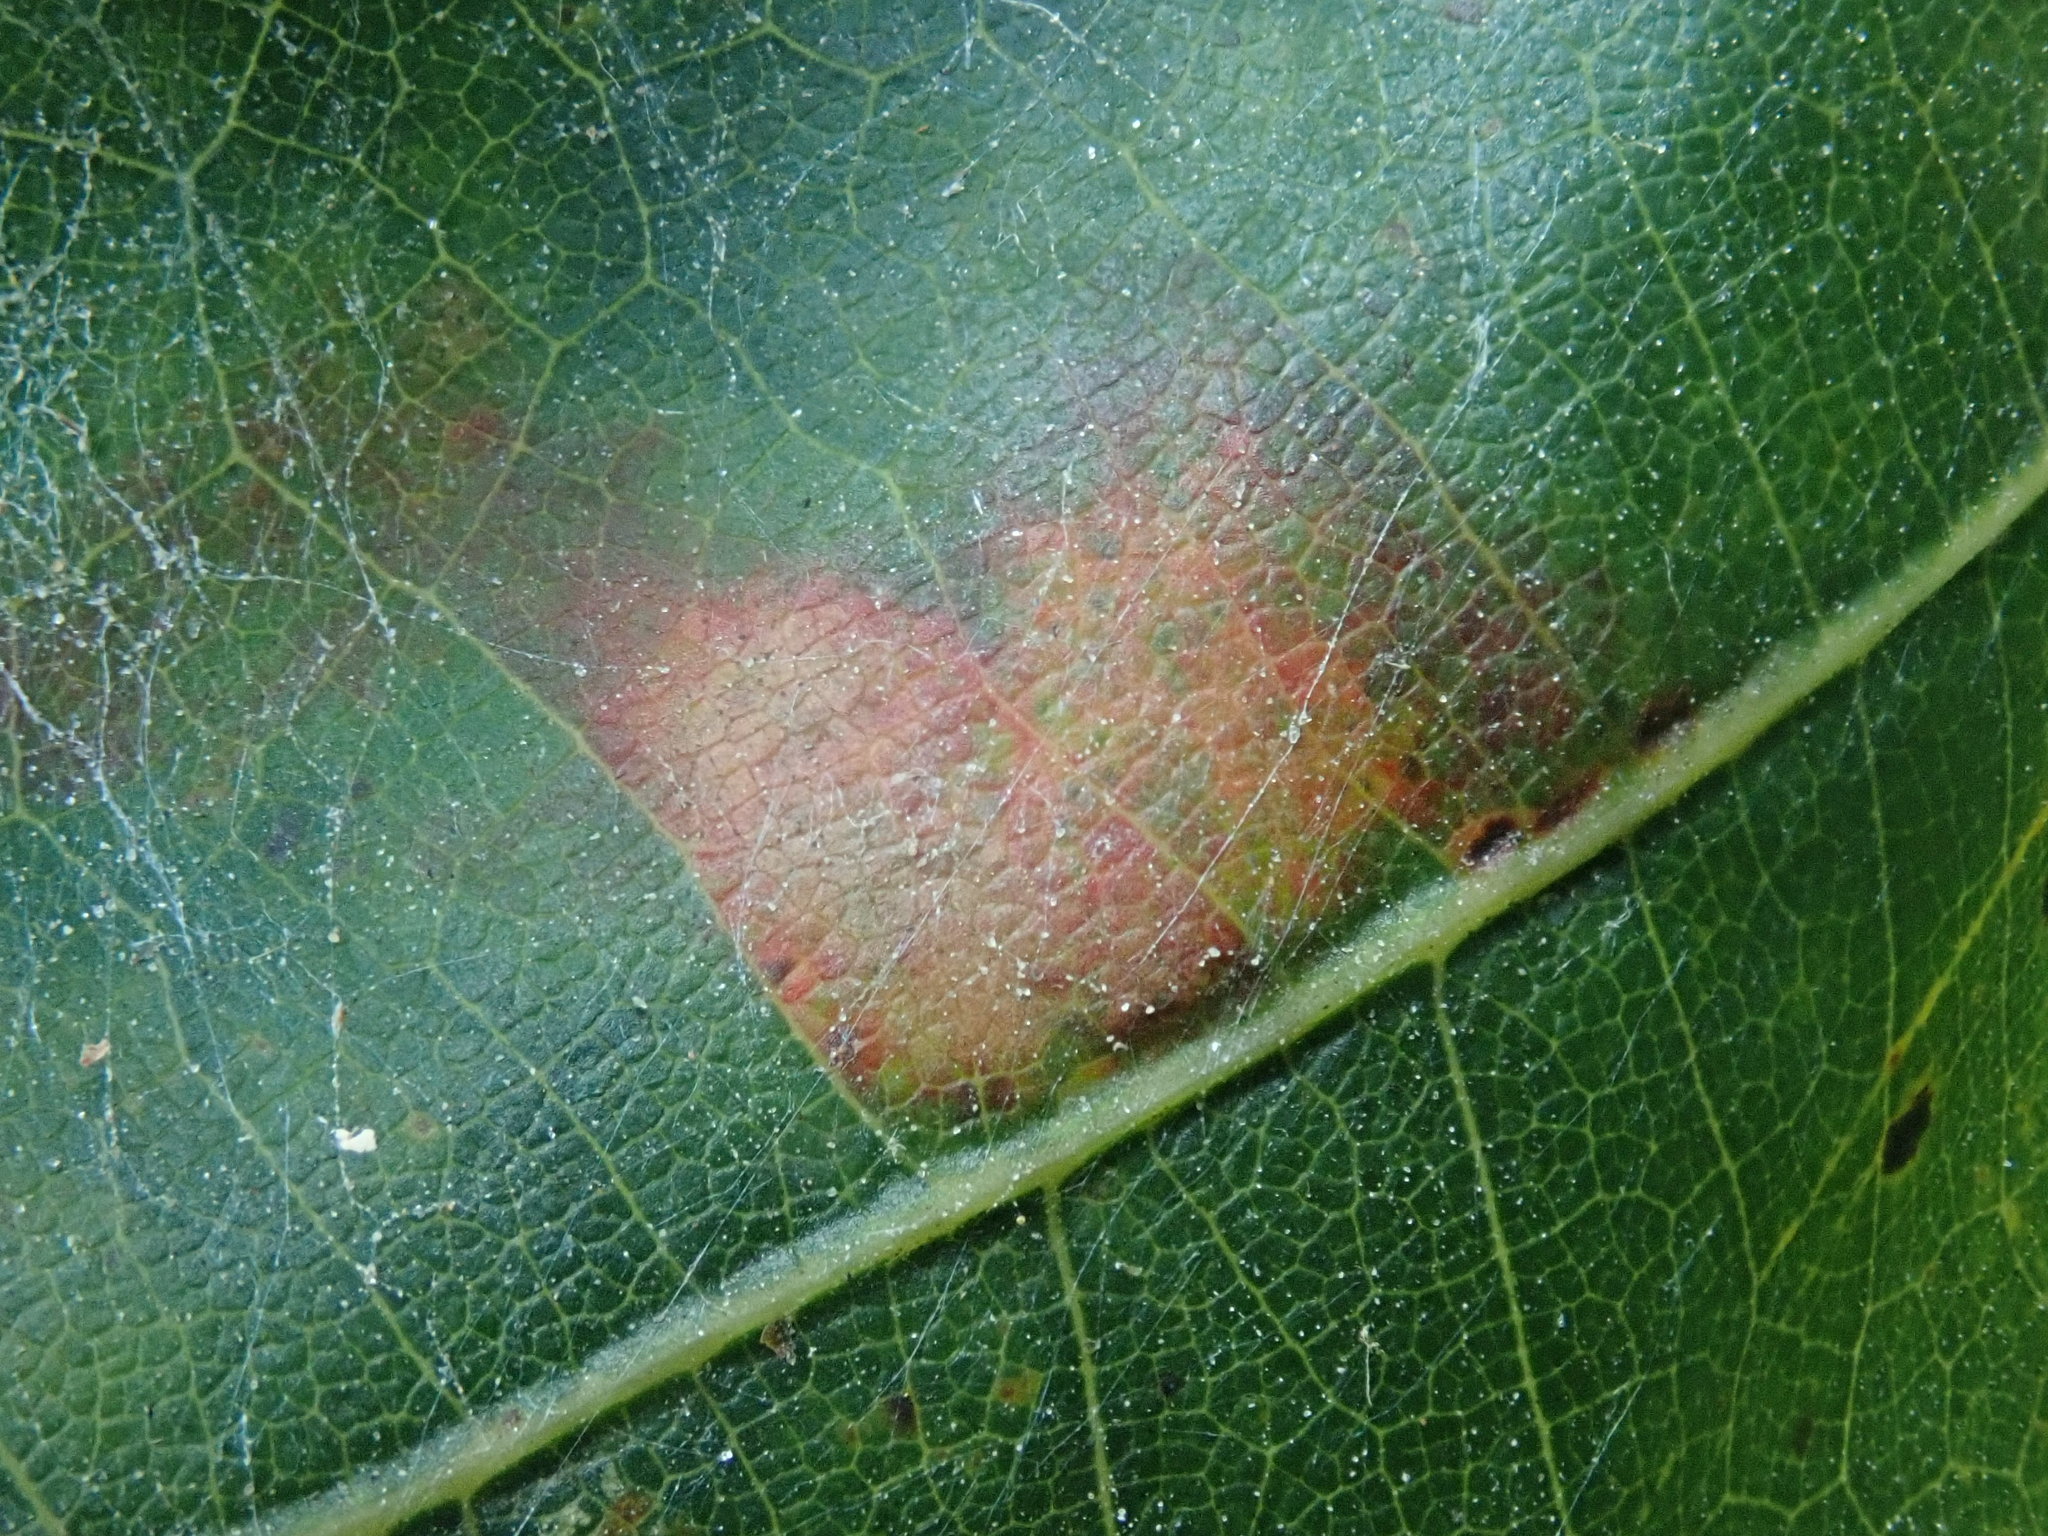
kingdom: Animalia
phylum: Arthropoda
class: Insecta
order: Hymenoptera
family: Cynipidae
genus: Kokkocynips
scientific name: Kokkocynips rileyi
